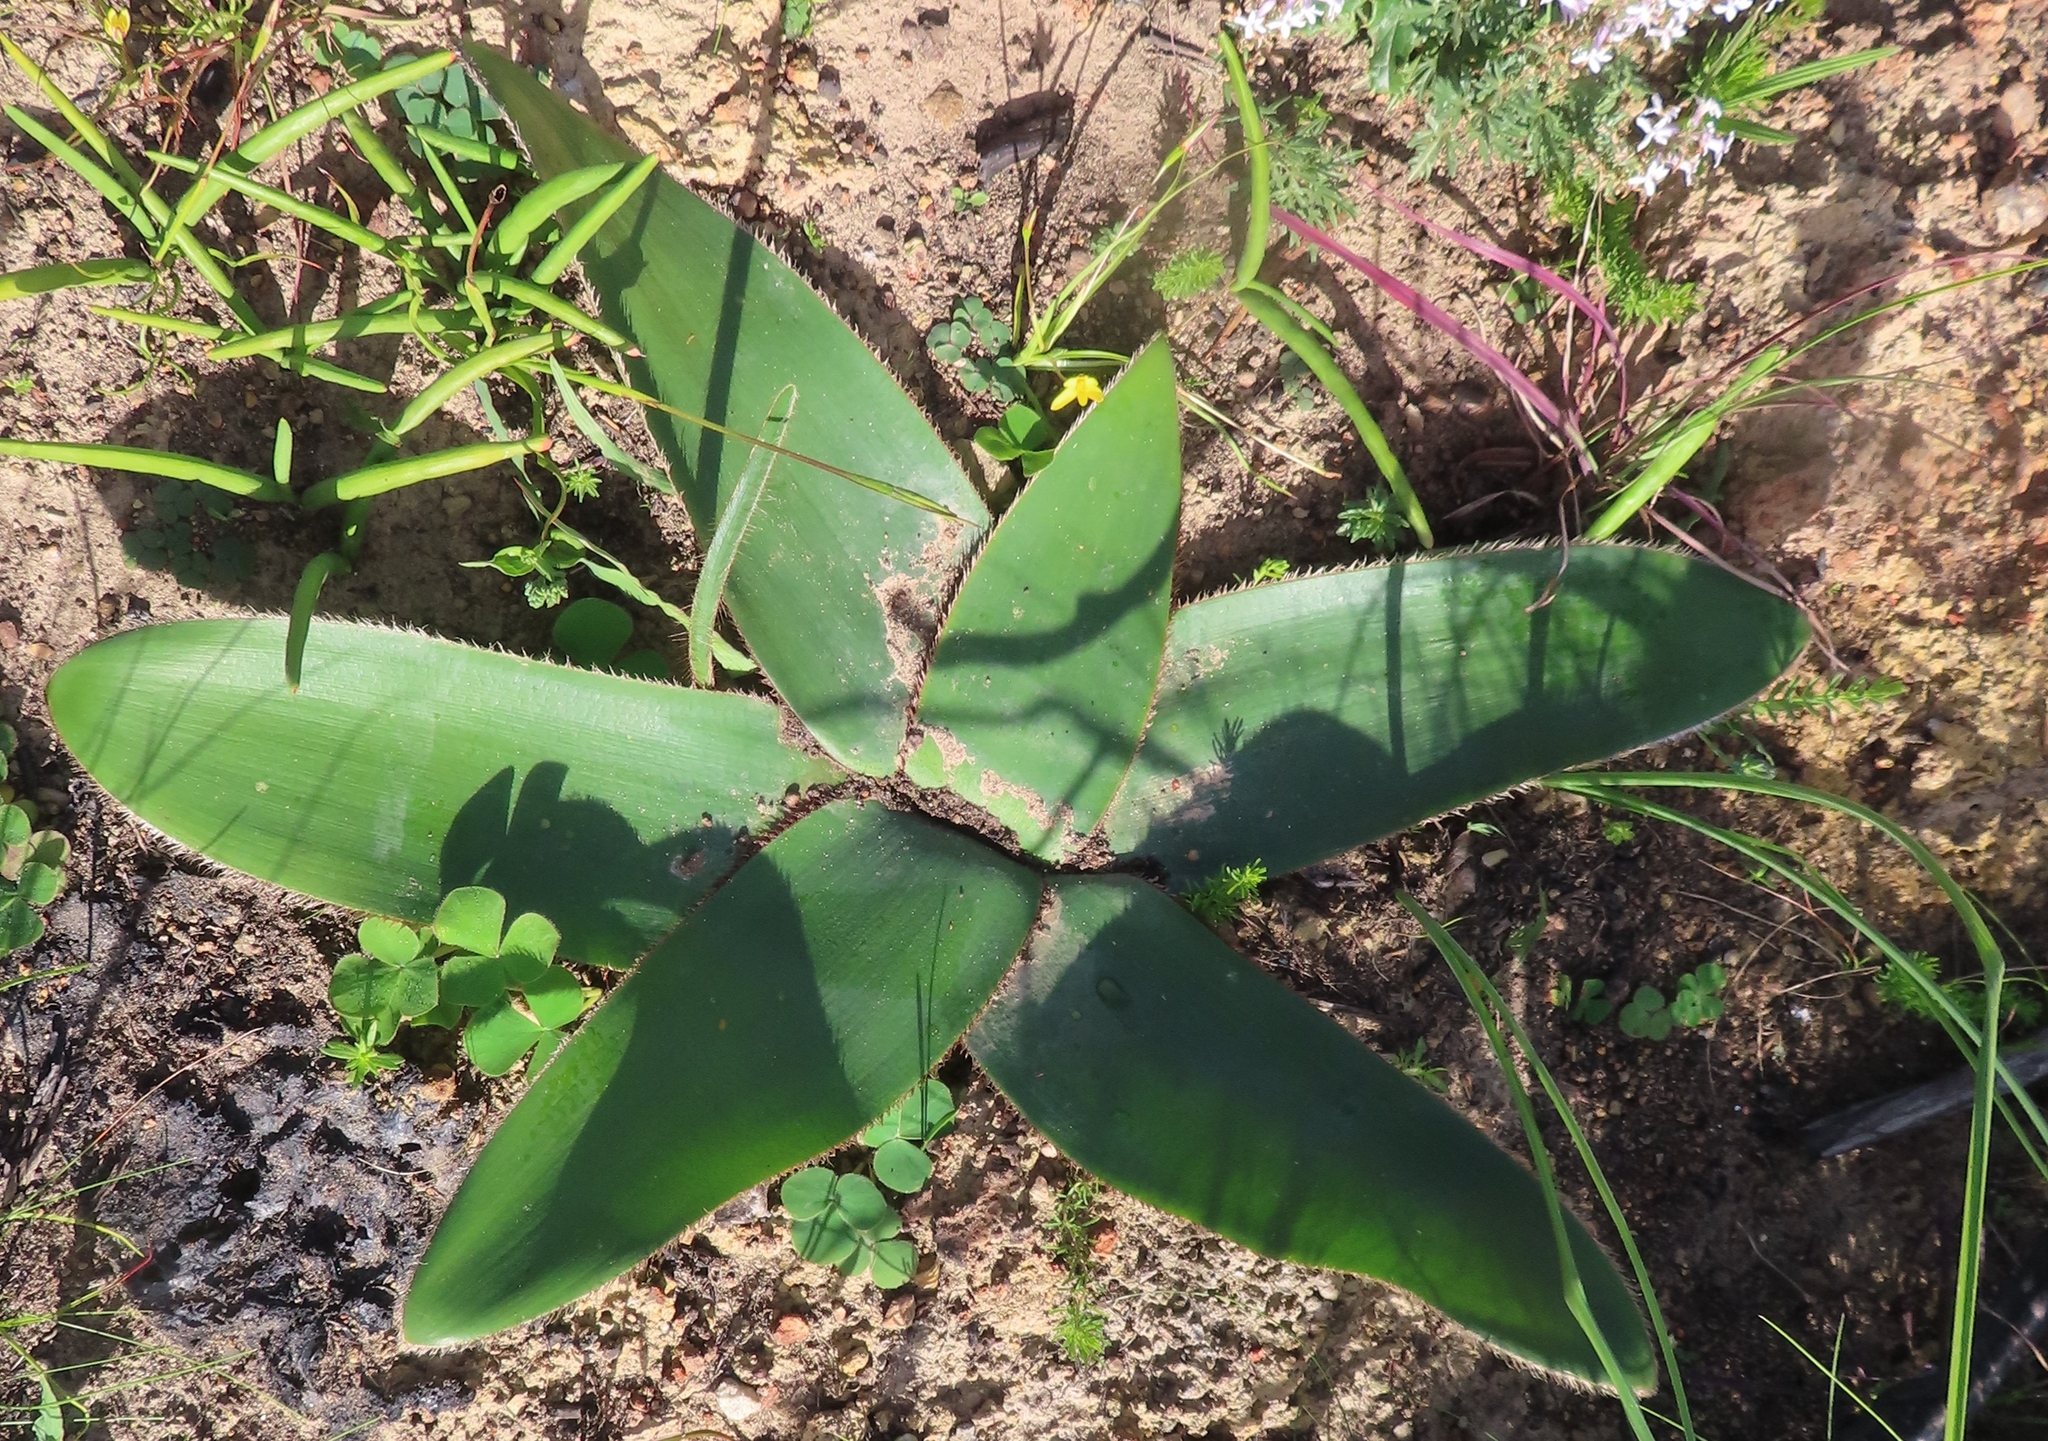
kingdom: Plantae
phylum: Tracheophyta
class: Liliopsida
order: Asparagales
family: Amaryllidaceae
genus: Crossyne
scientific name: Crossyne guttata
